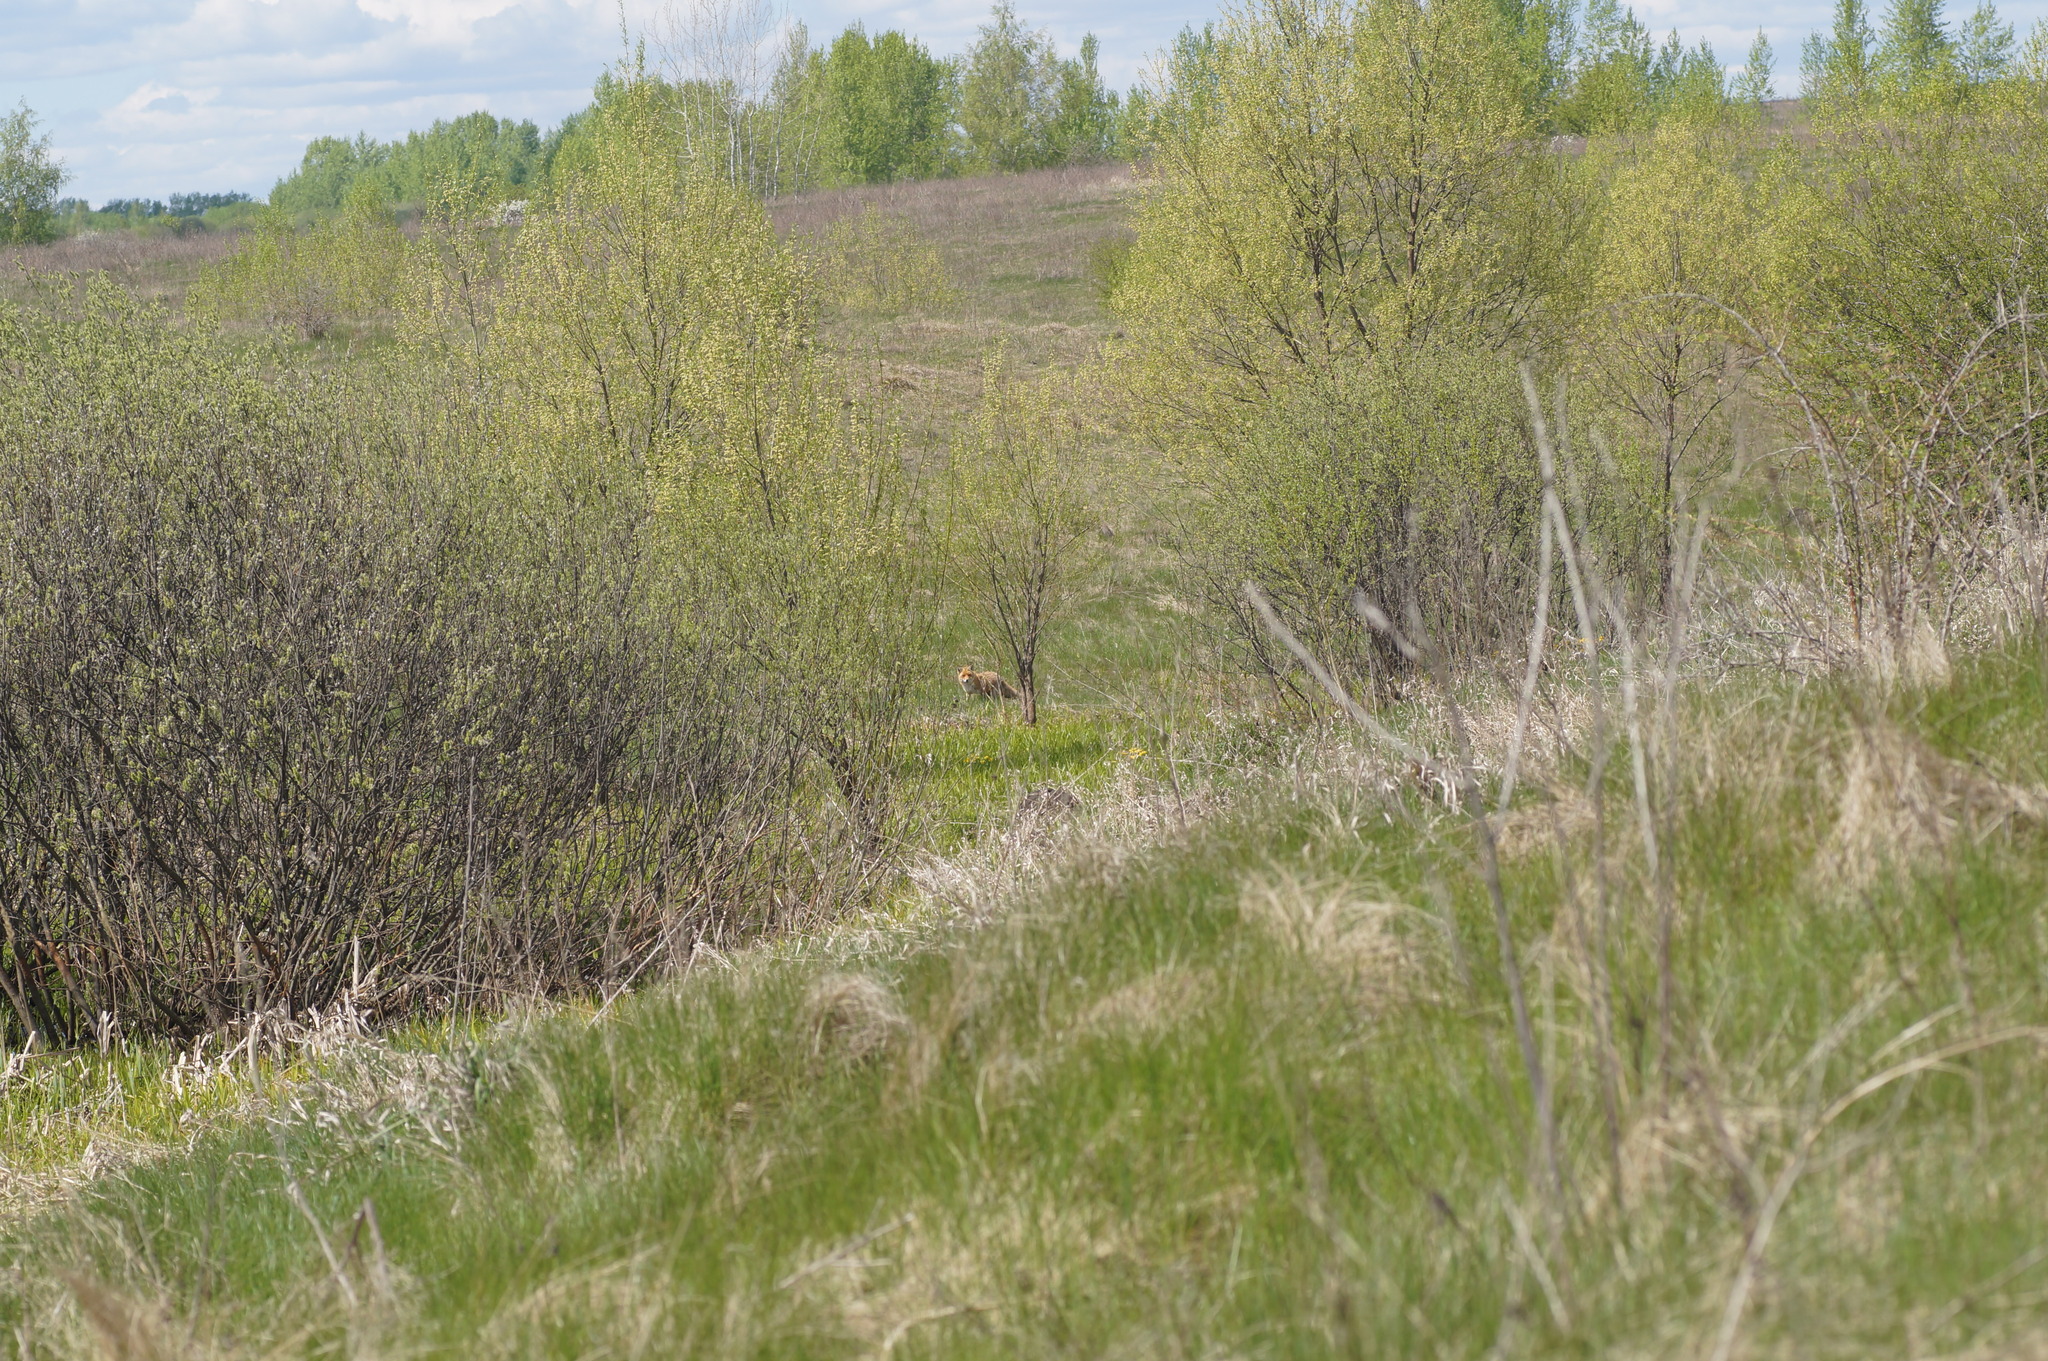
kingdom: Animalia
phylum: Chordata
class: Mammalia
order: Carnivora
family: Canidae
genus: Vulpes
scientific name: Vulpes vulpes
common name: Red fox
